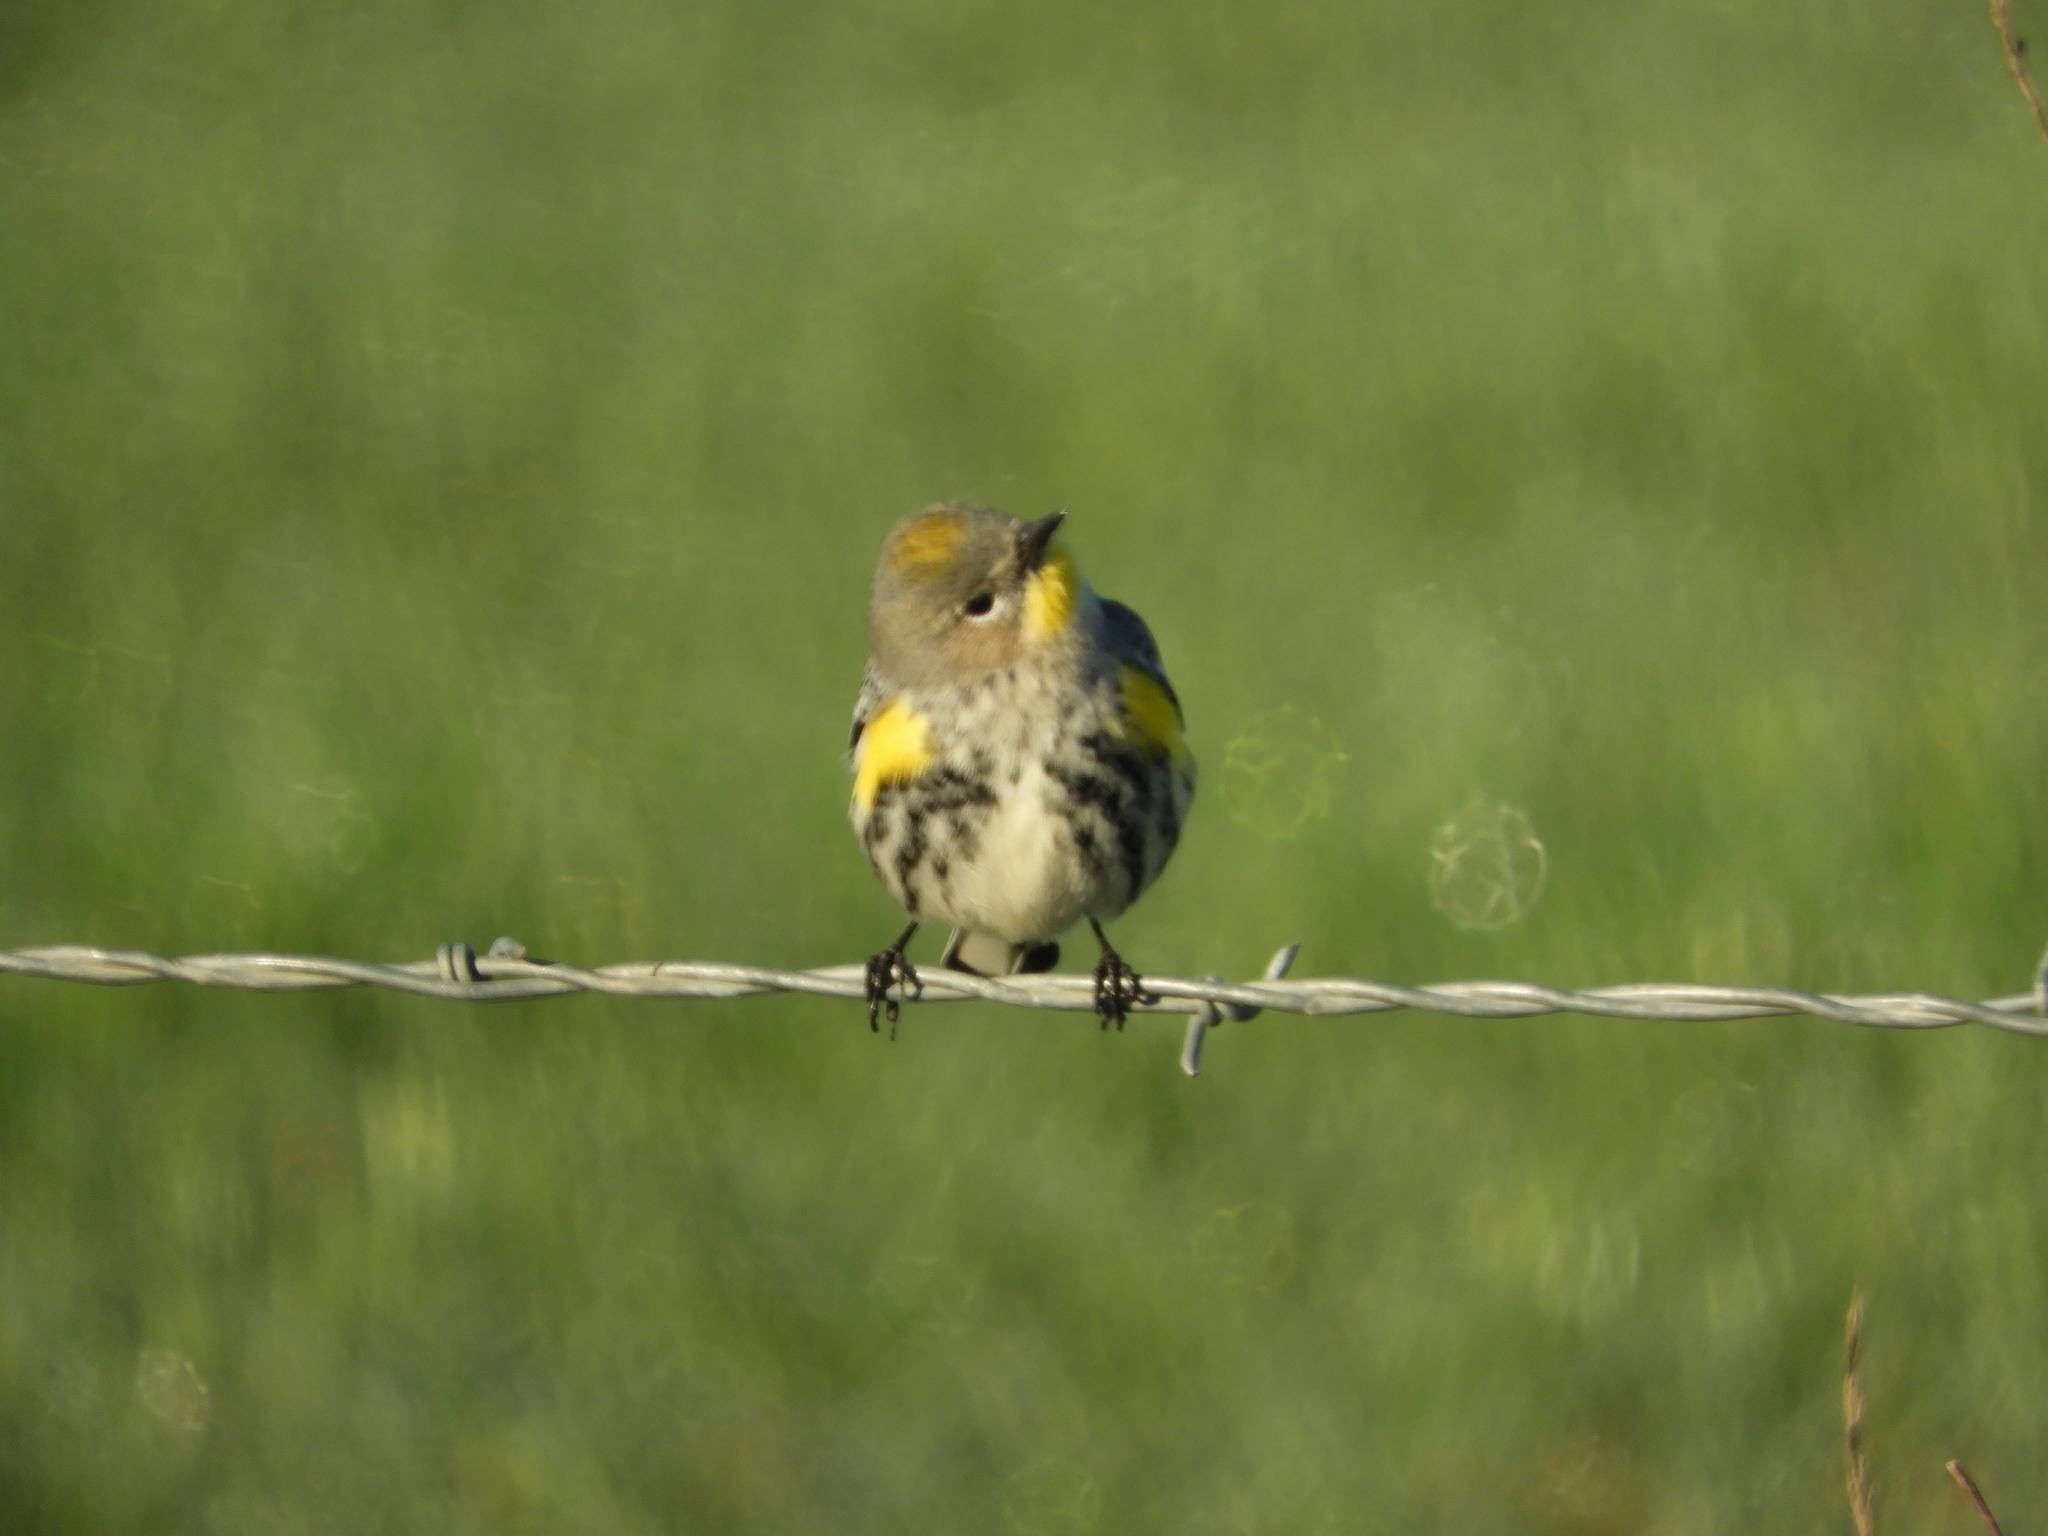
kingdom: Animalia
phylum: Chordata
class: Aves
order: Passeriformes
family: Parulidae
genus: Setophaga
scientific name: Setophaga auduboni
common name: Audubon's warbler
